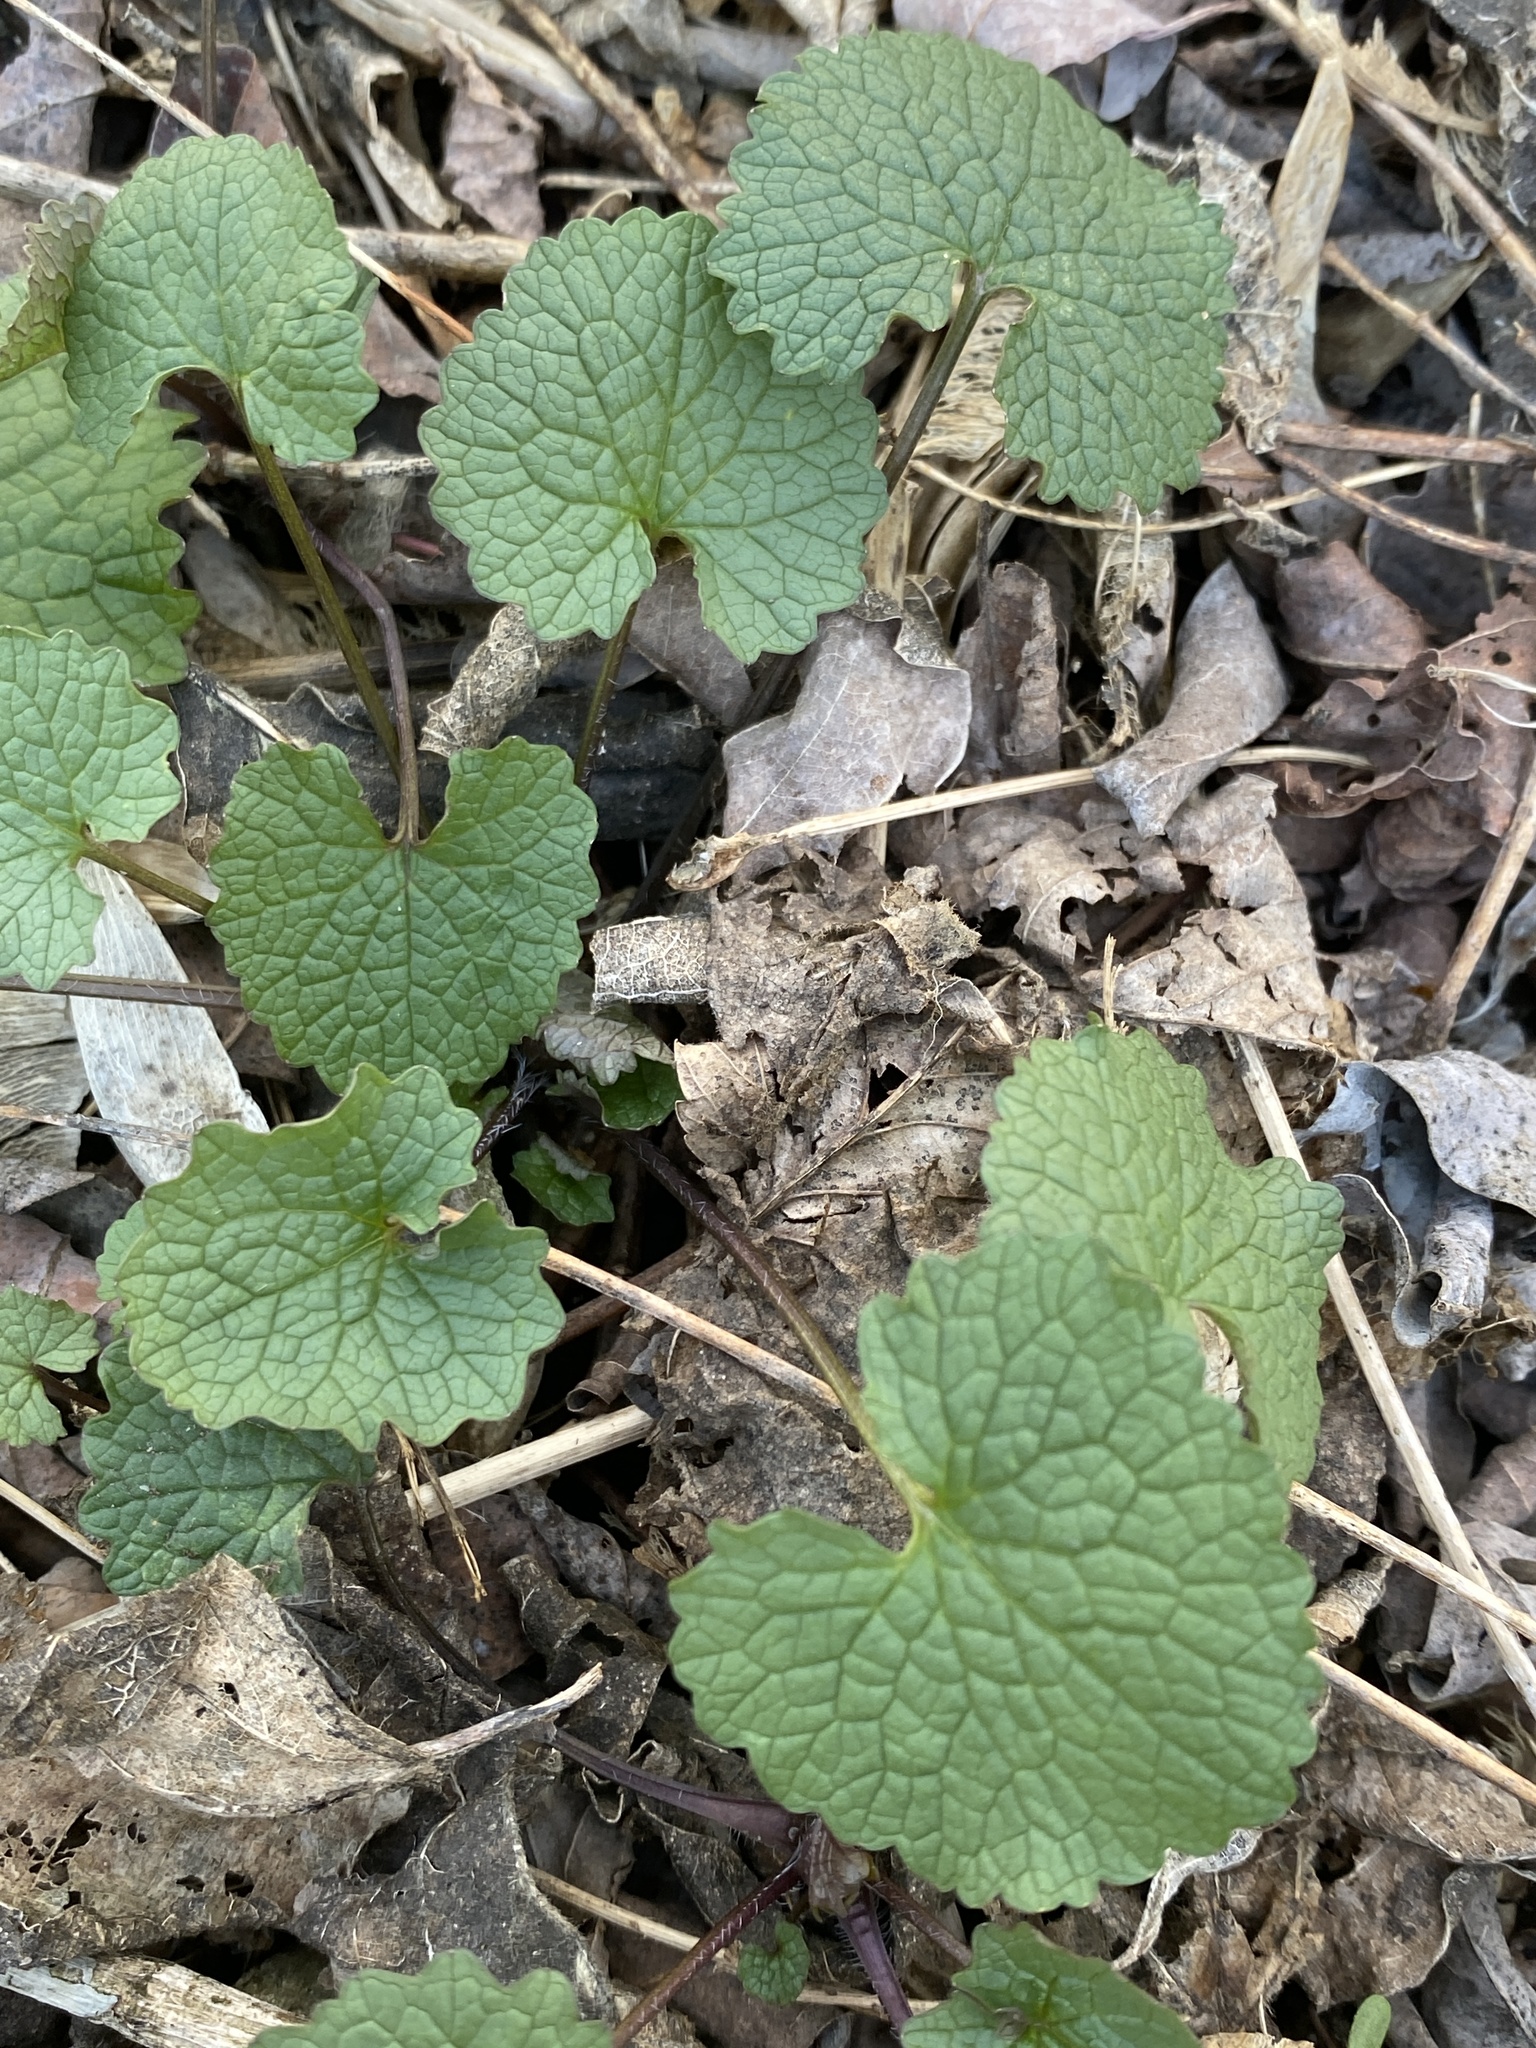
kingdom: Plantae
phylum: Tracheophyta
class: Magnoliopsida
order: Brassicales
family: Brassicaceae
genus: Alliaria
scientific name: Alliaria petiolata
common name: Garlic mustard
